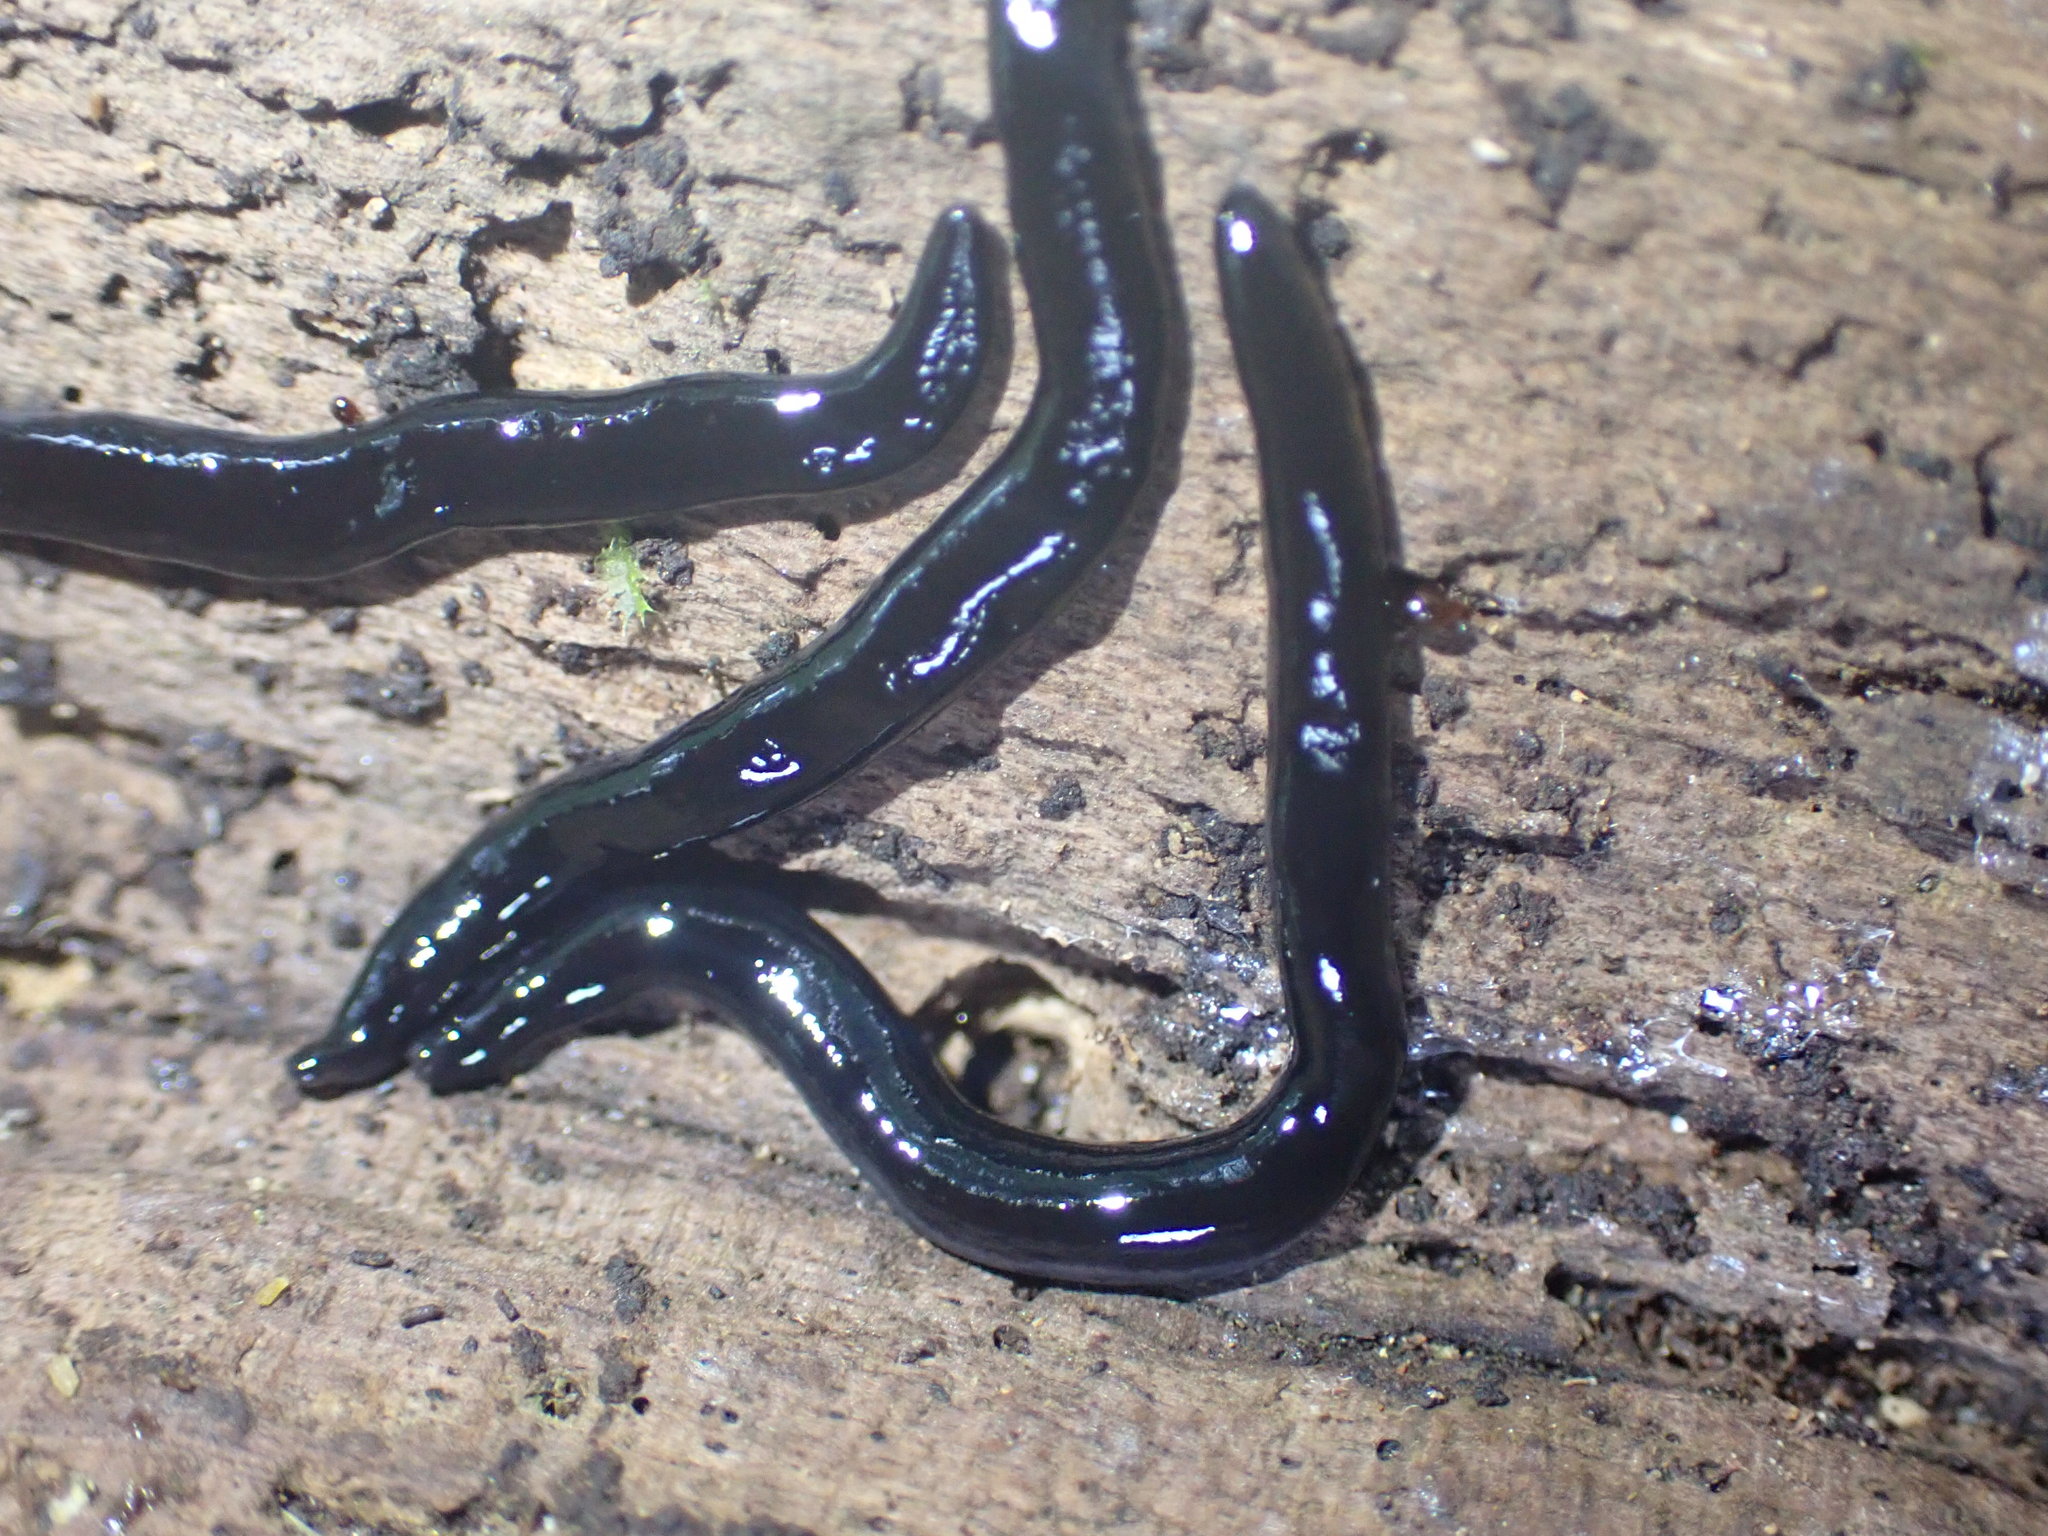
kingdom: Animalia
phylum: Platyhelminthes
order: Tricladida
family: Geoplanidae
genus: Parakontikia
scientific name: Parakontikia ventrolineata
